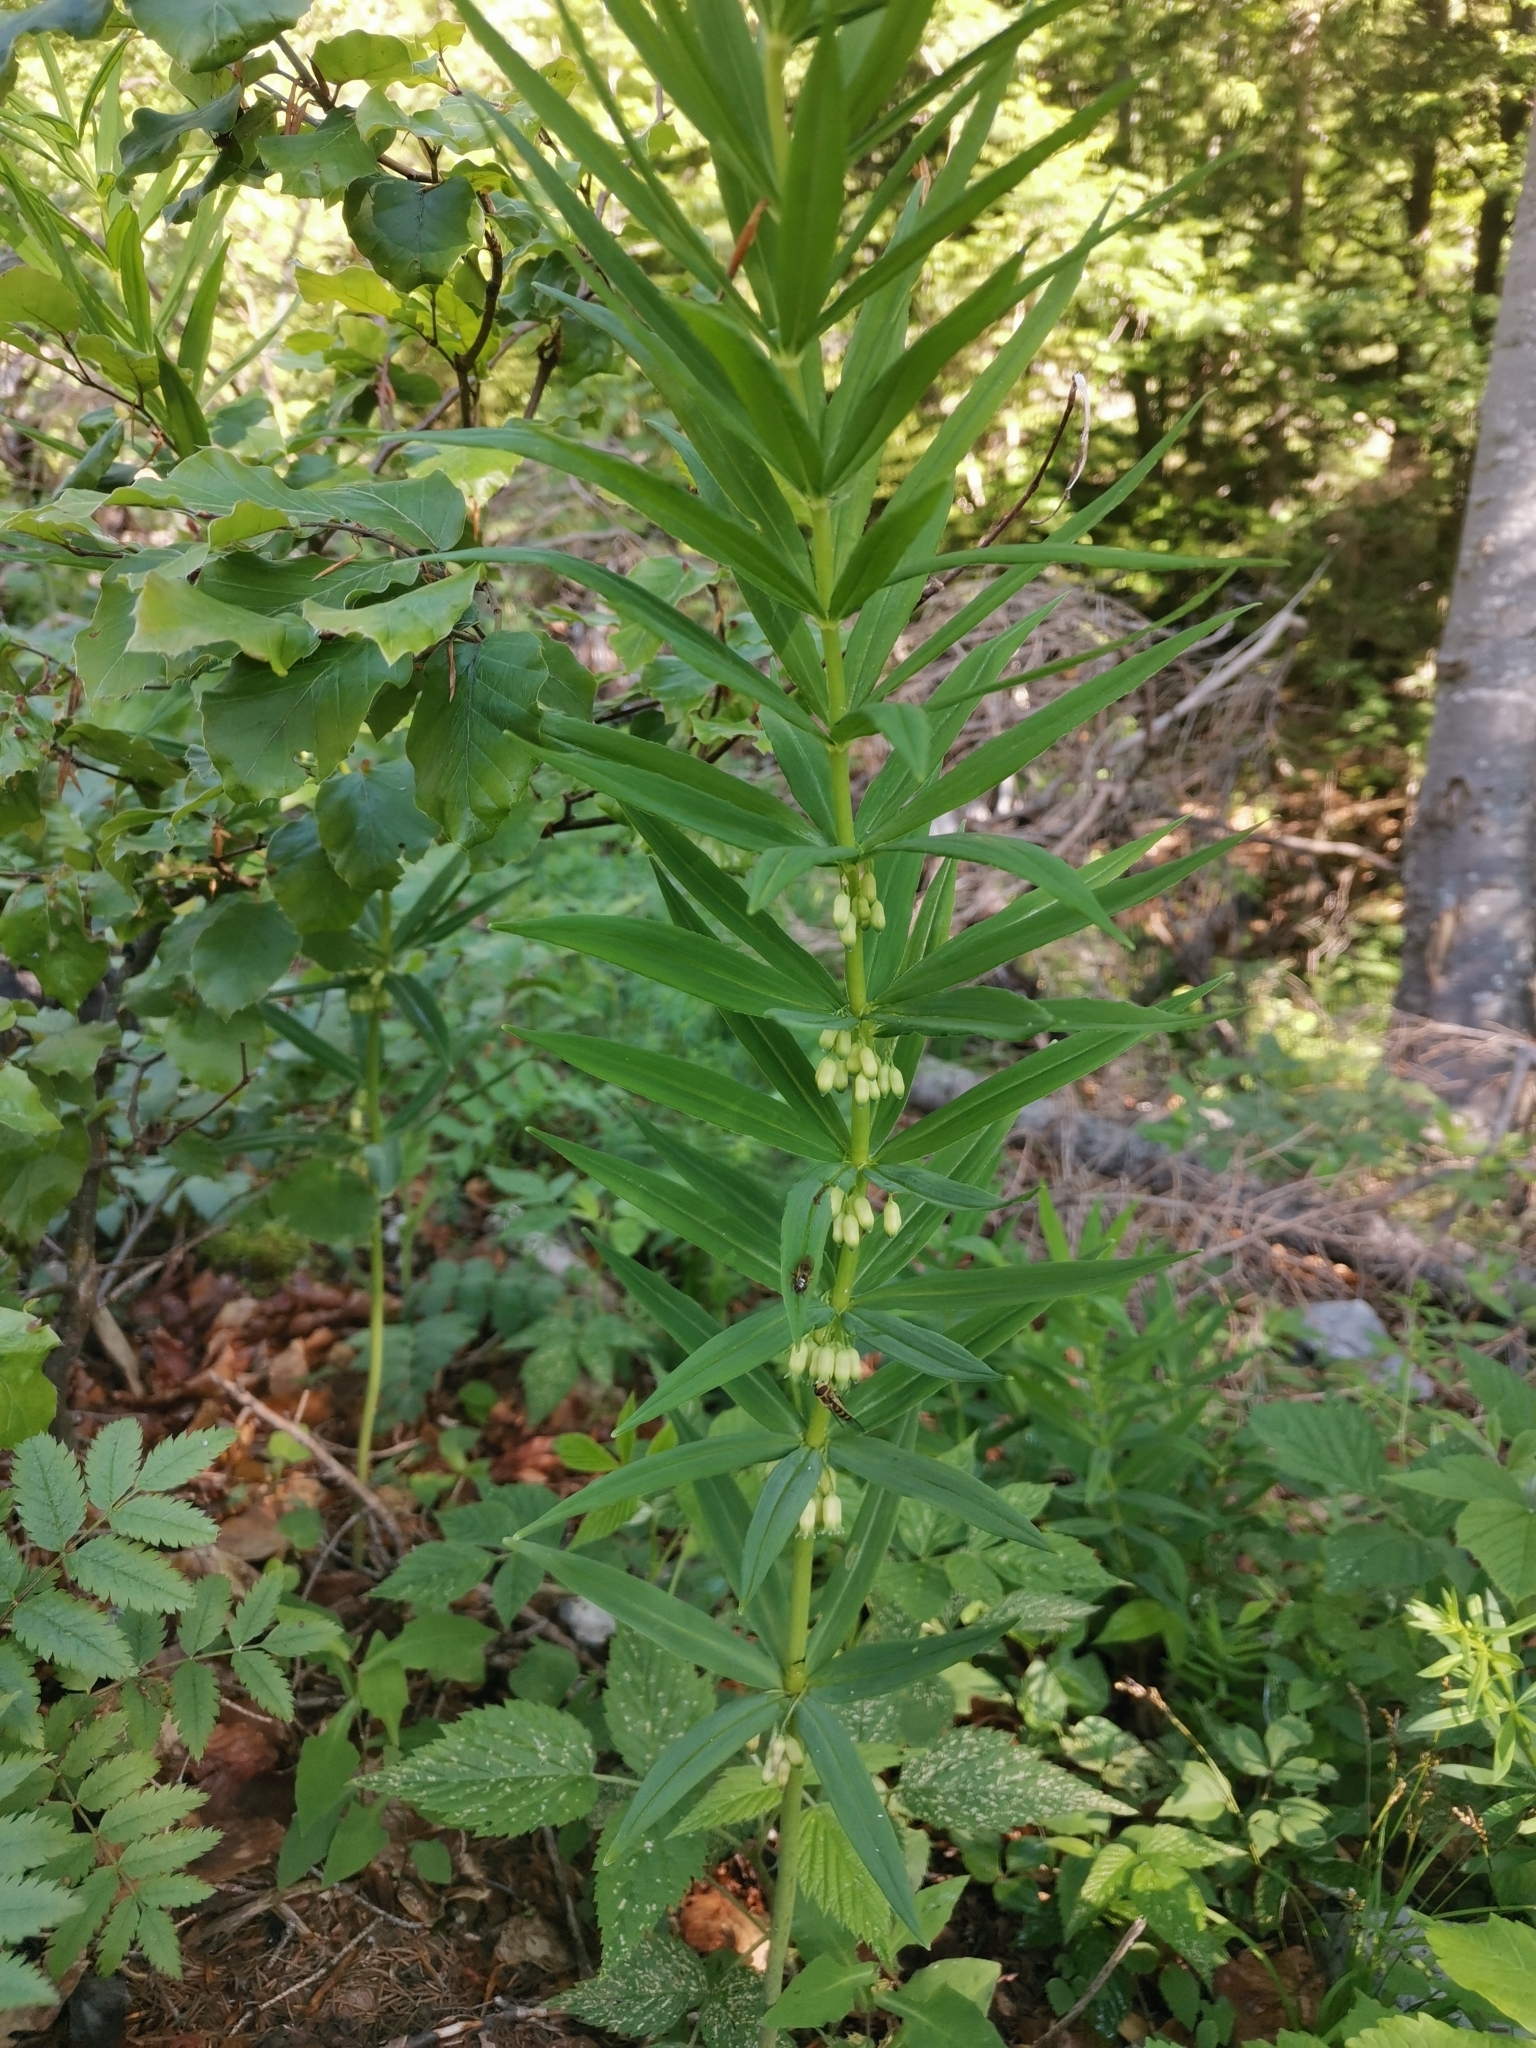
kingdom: Plantae
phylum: Tracheophyta
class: Liliopsida
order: Asparagales
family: Asparagaceae
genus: Polygonatum
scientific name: Polygonatum verticillatum
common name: Whorled solomon's-seal
